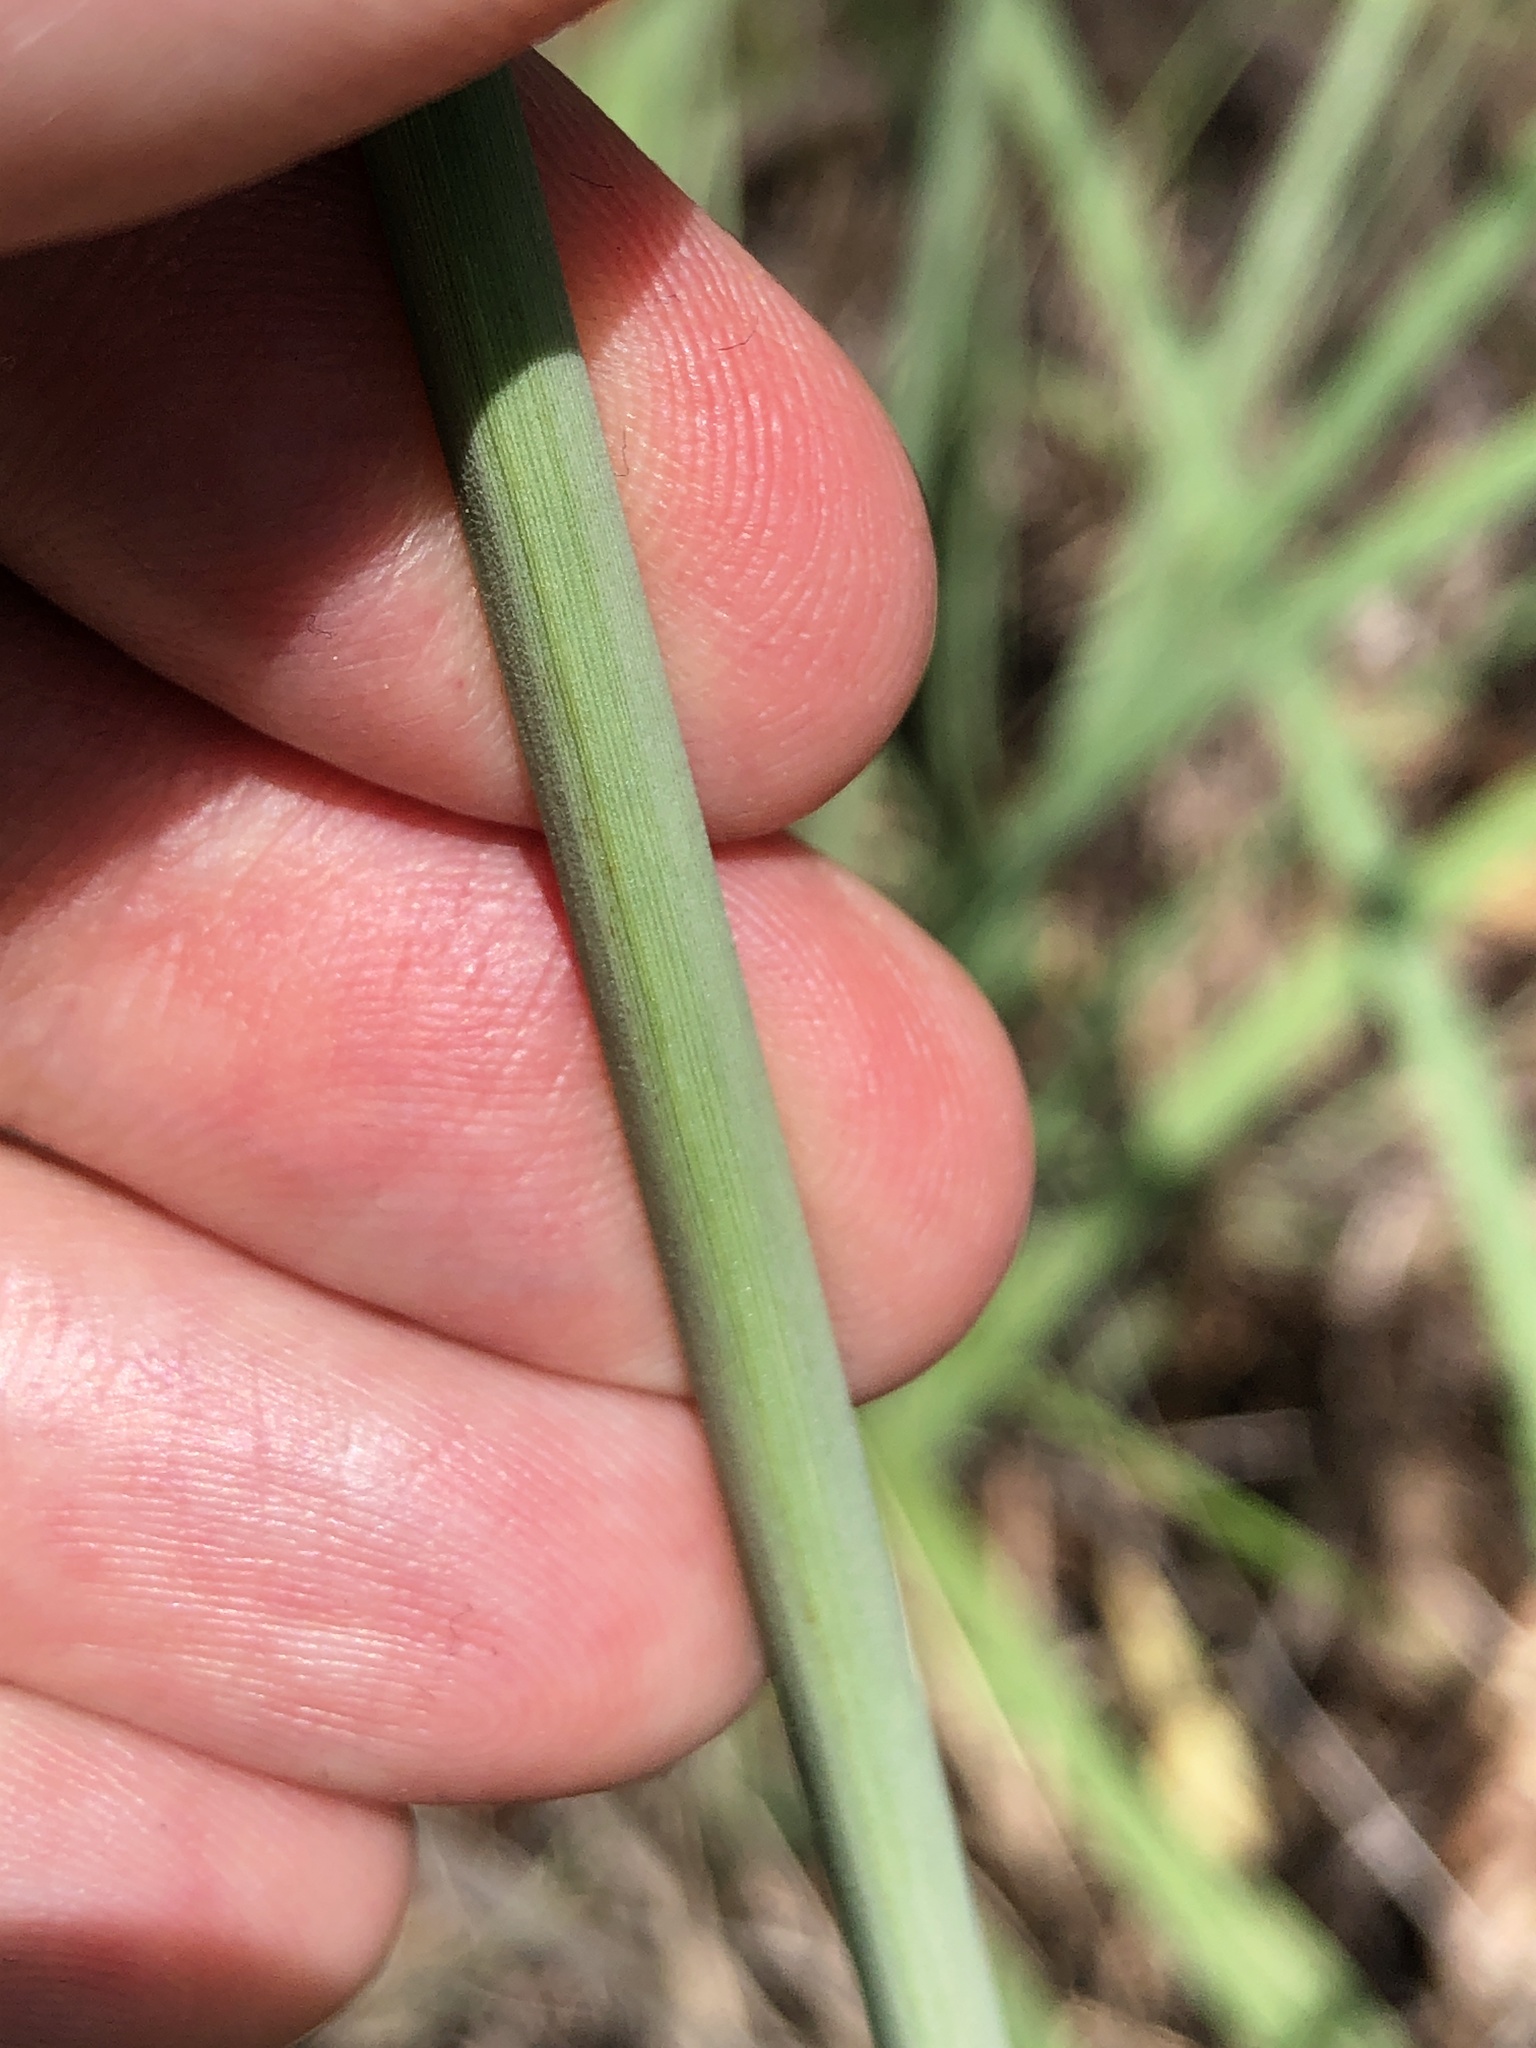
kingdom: Plantae
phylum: Tracheophyta
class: Liliopsida
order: Poales
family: Cyperaceae
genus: Cyperus
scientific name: Cyperus conicus
